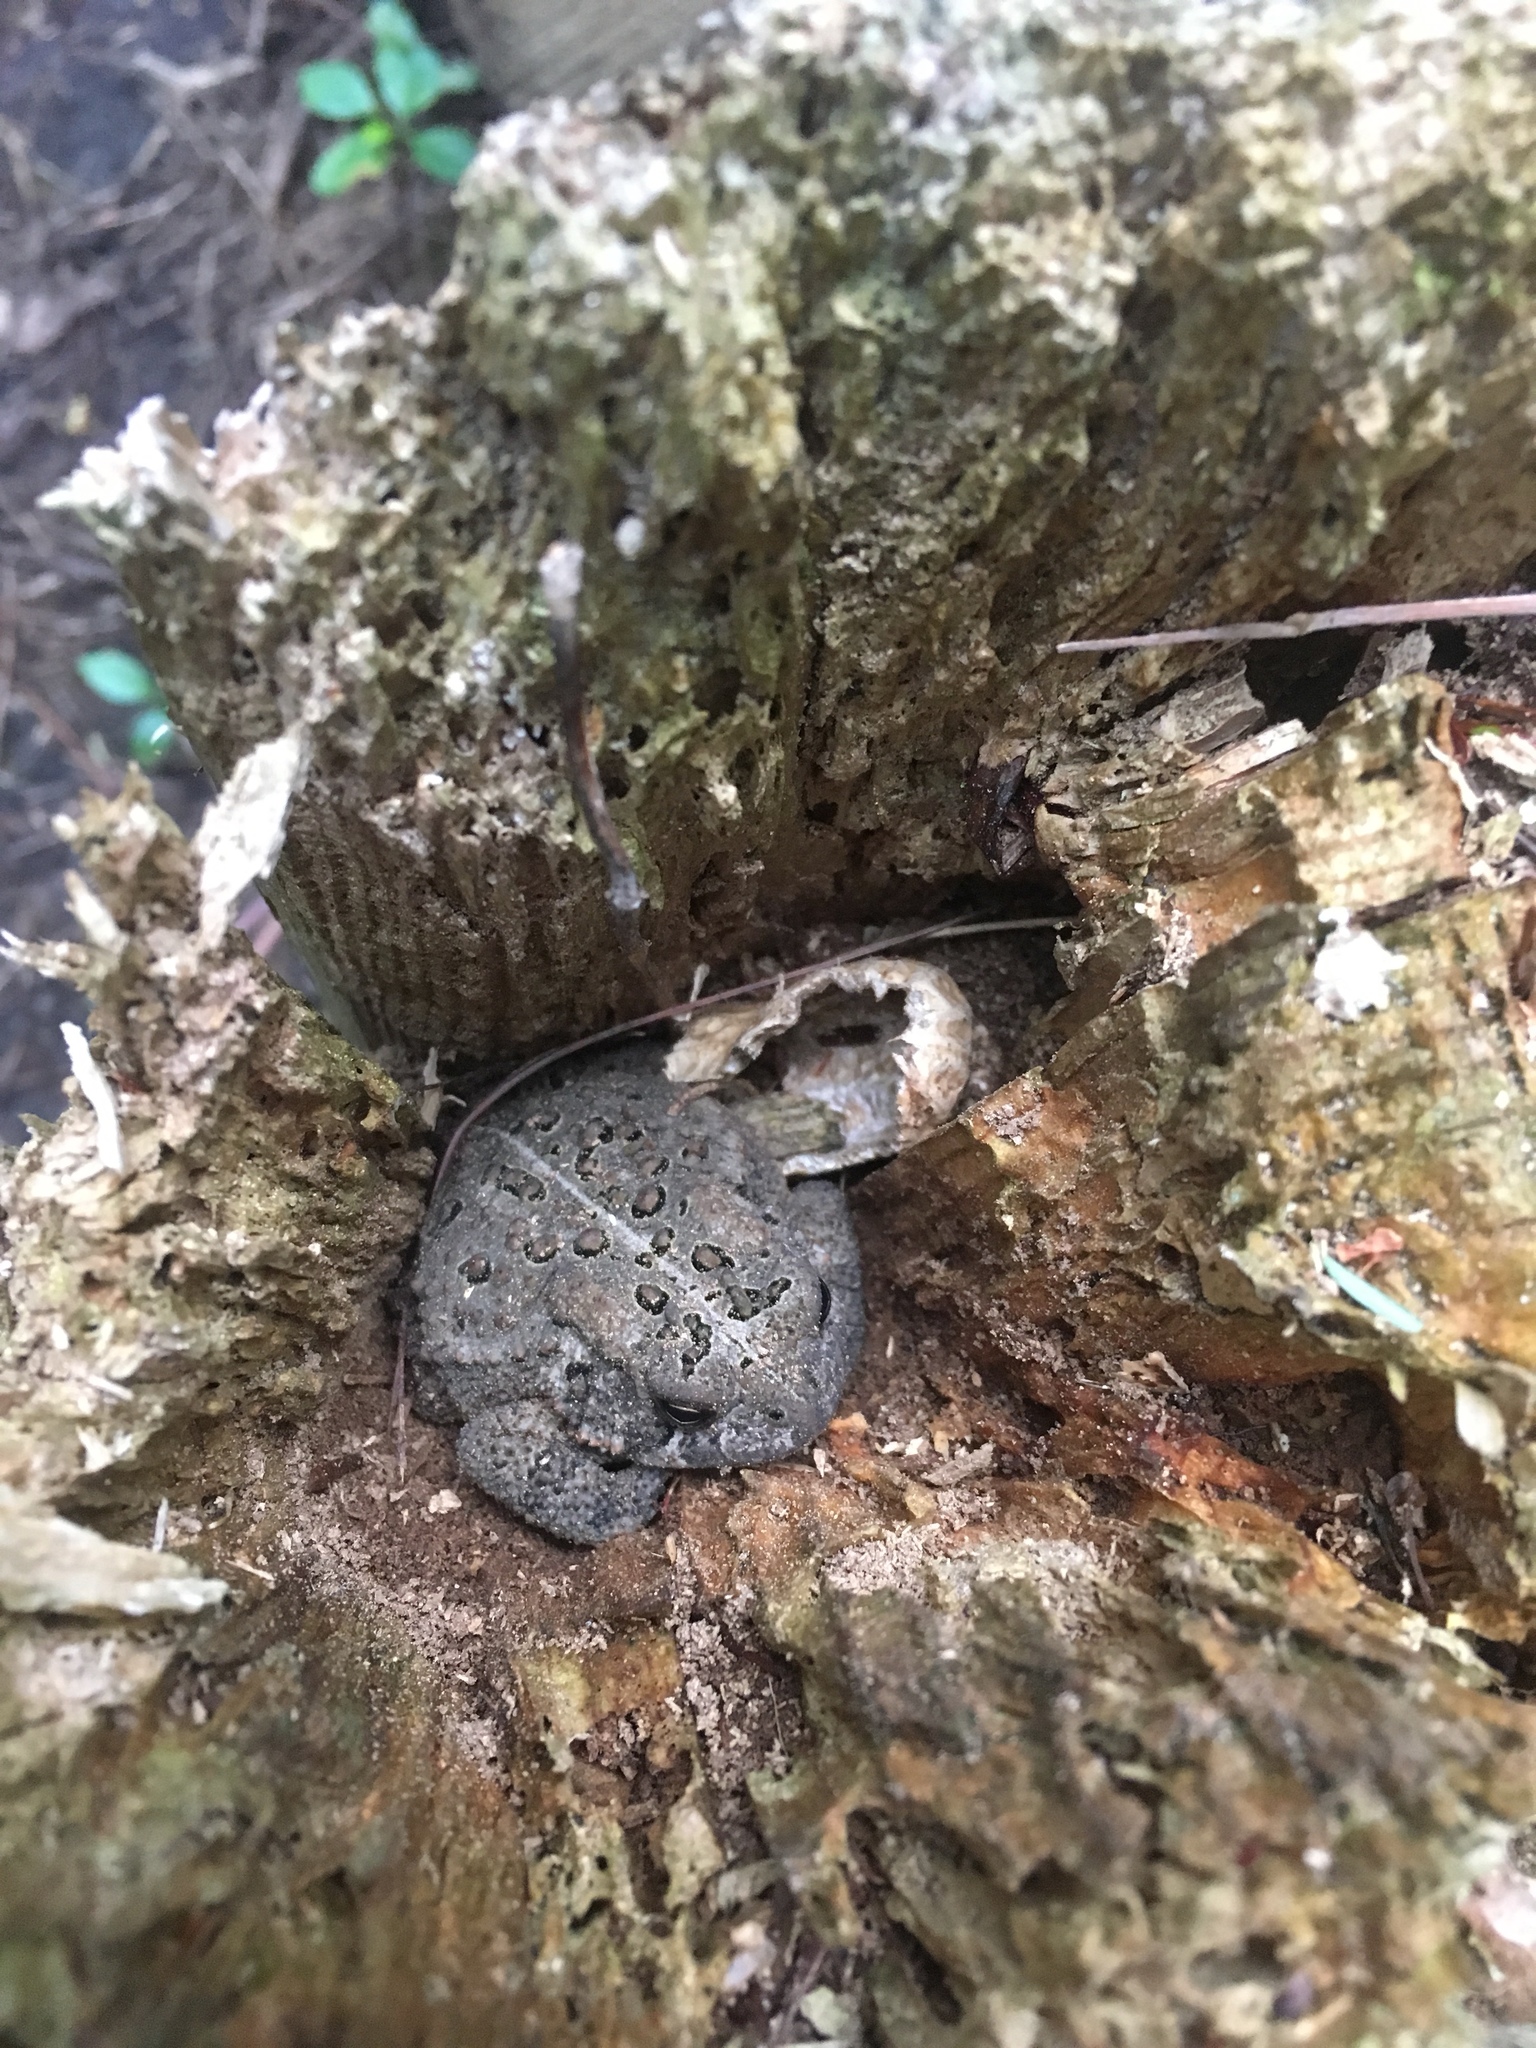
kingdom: Animalia
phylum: Chordata
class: Amphibia
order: Anura
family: Bufonidae
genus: Anaxyrus
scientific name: Anaxyrus americanus
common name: American toad
